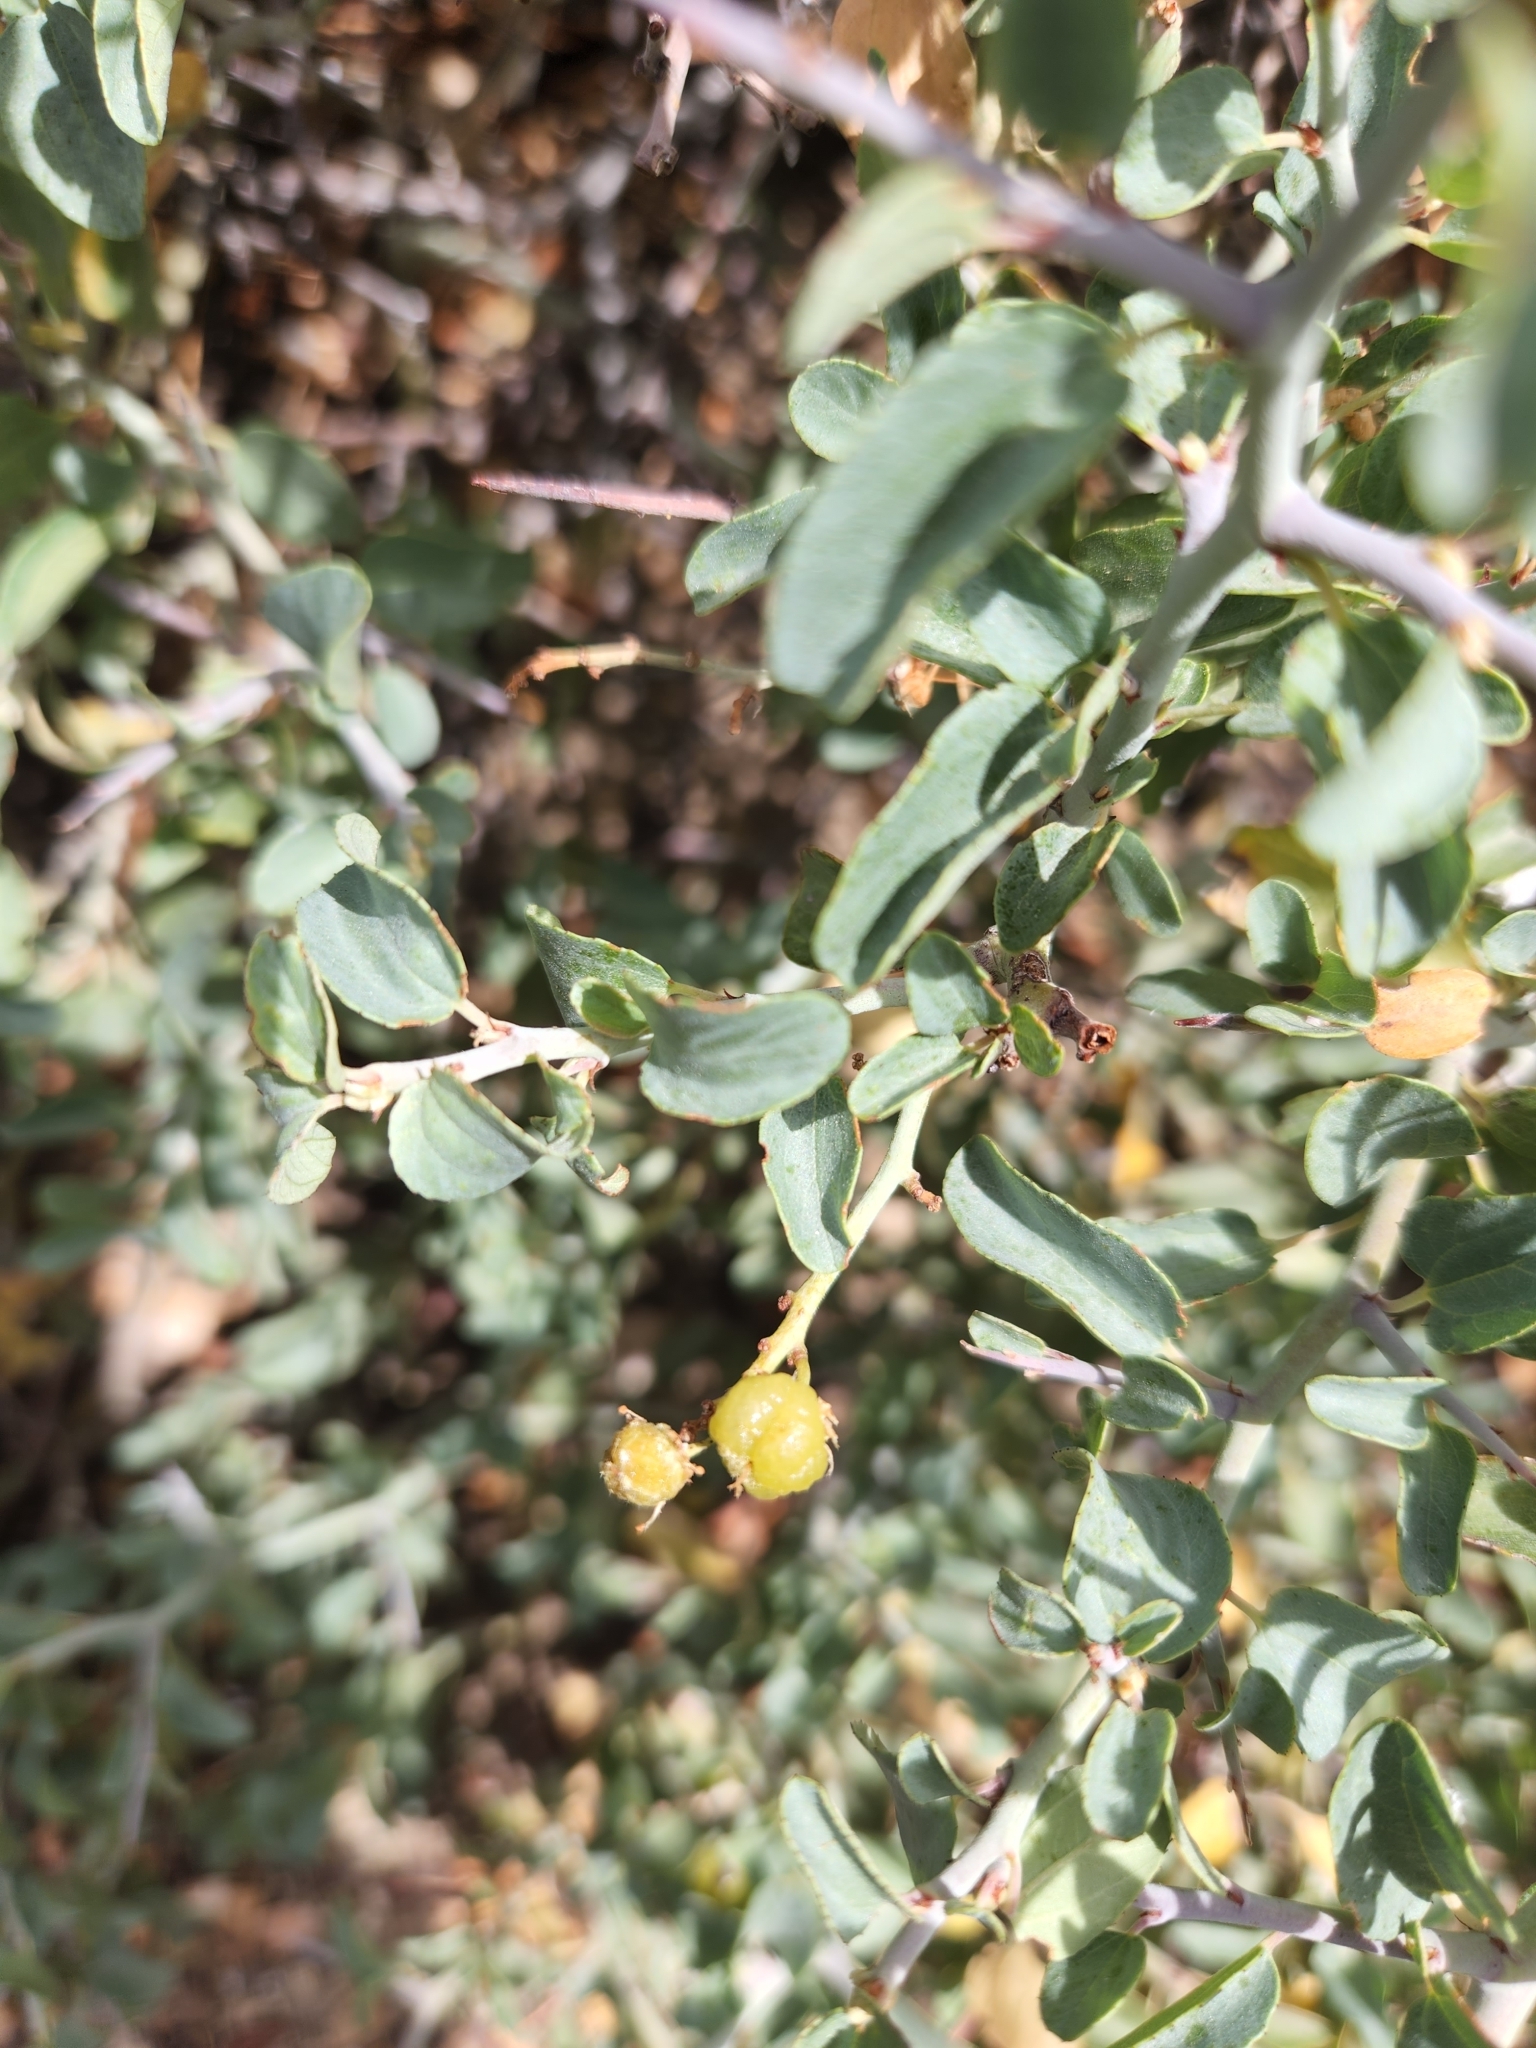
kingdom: Plantae
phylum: Tracheophyta
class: Magnoliopsida
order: Rosales
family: Rhamnaceae
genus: Ceanothus
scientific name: Ceanothus cordulatus
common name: Mountain whitethorn
